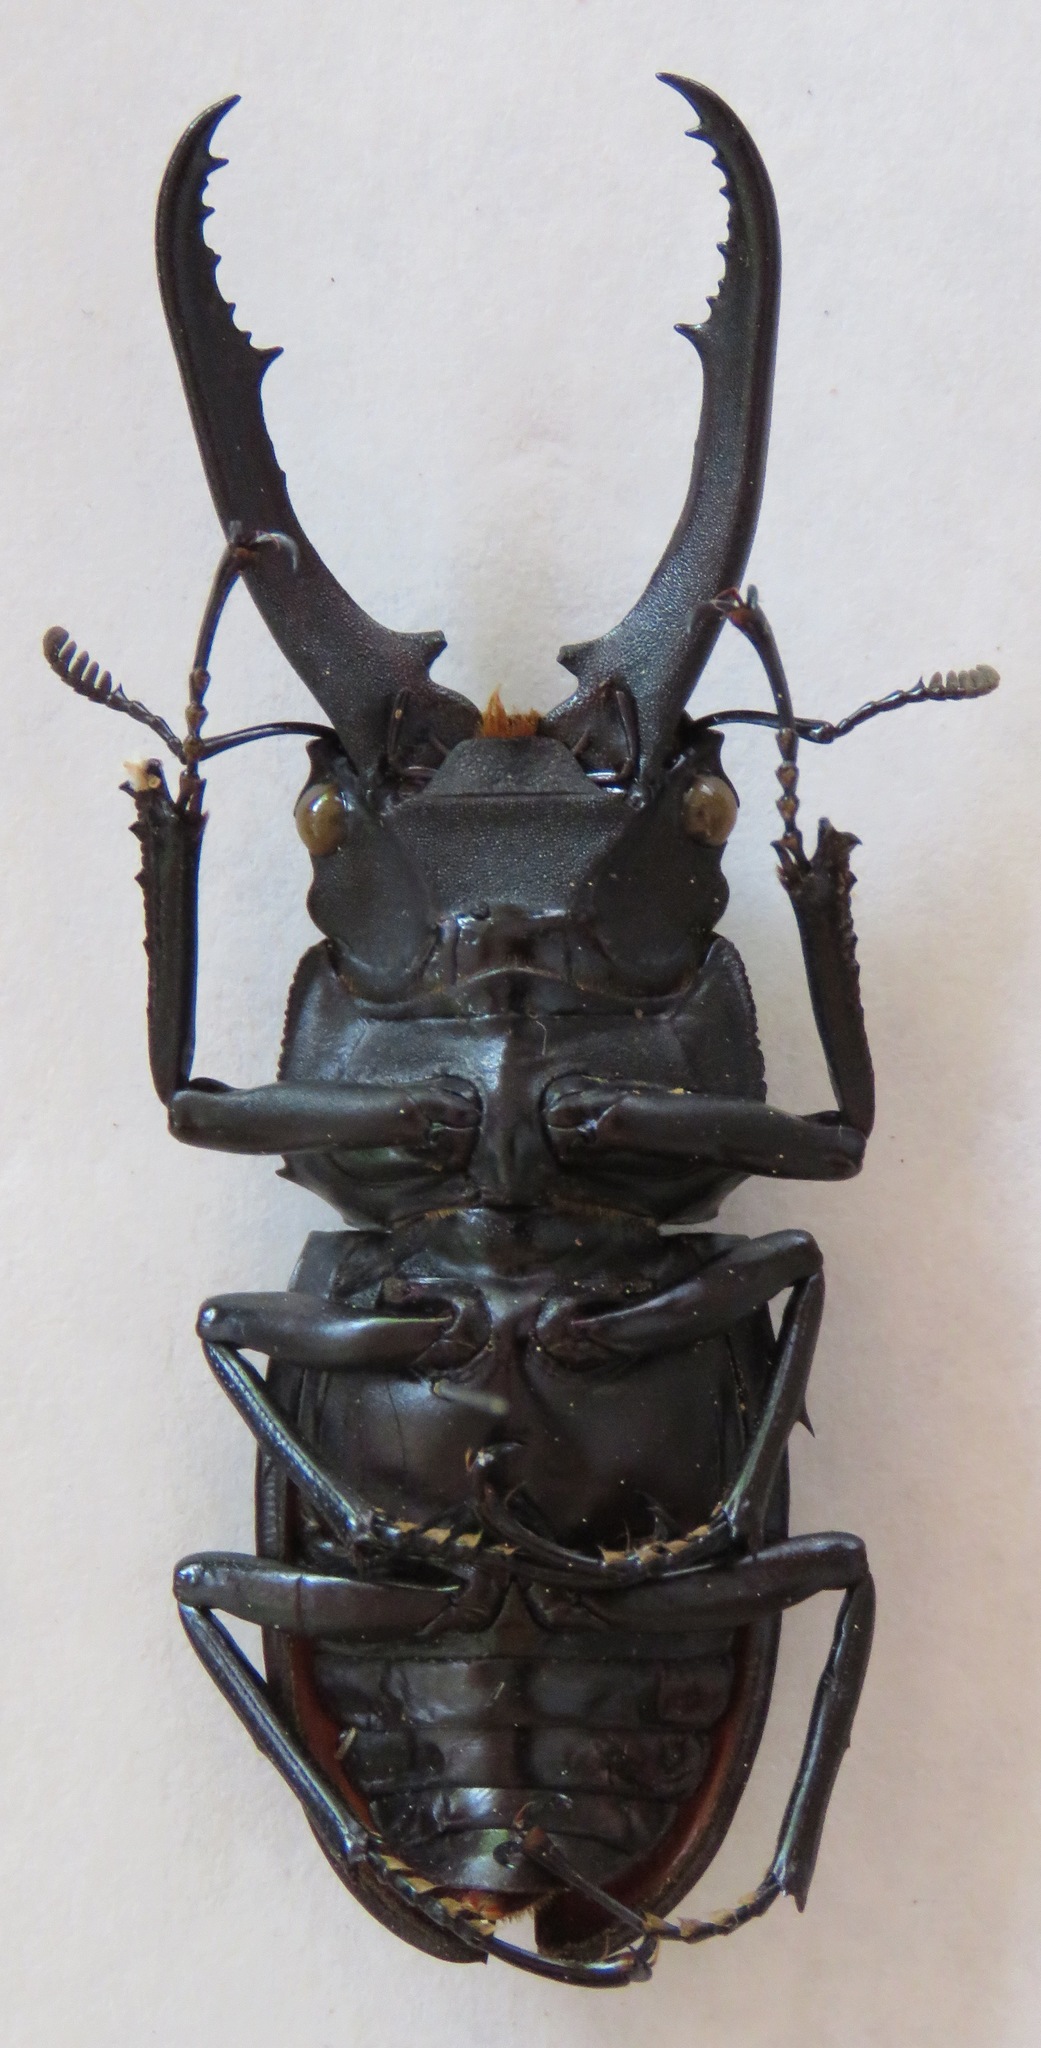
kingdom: Animalia
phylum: Arthropoda
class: Insecta
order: Coleoptera
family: Lucanidae
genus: Hexarthrius
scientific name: Hexarthrius vitalisi
